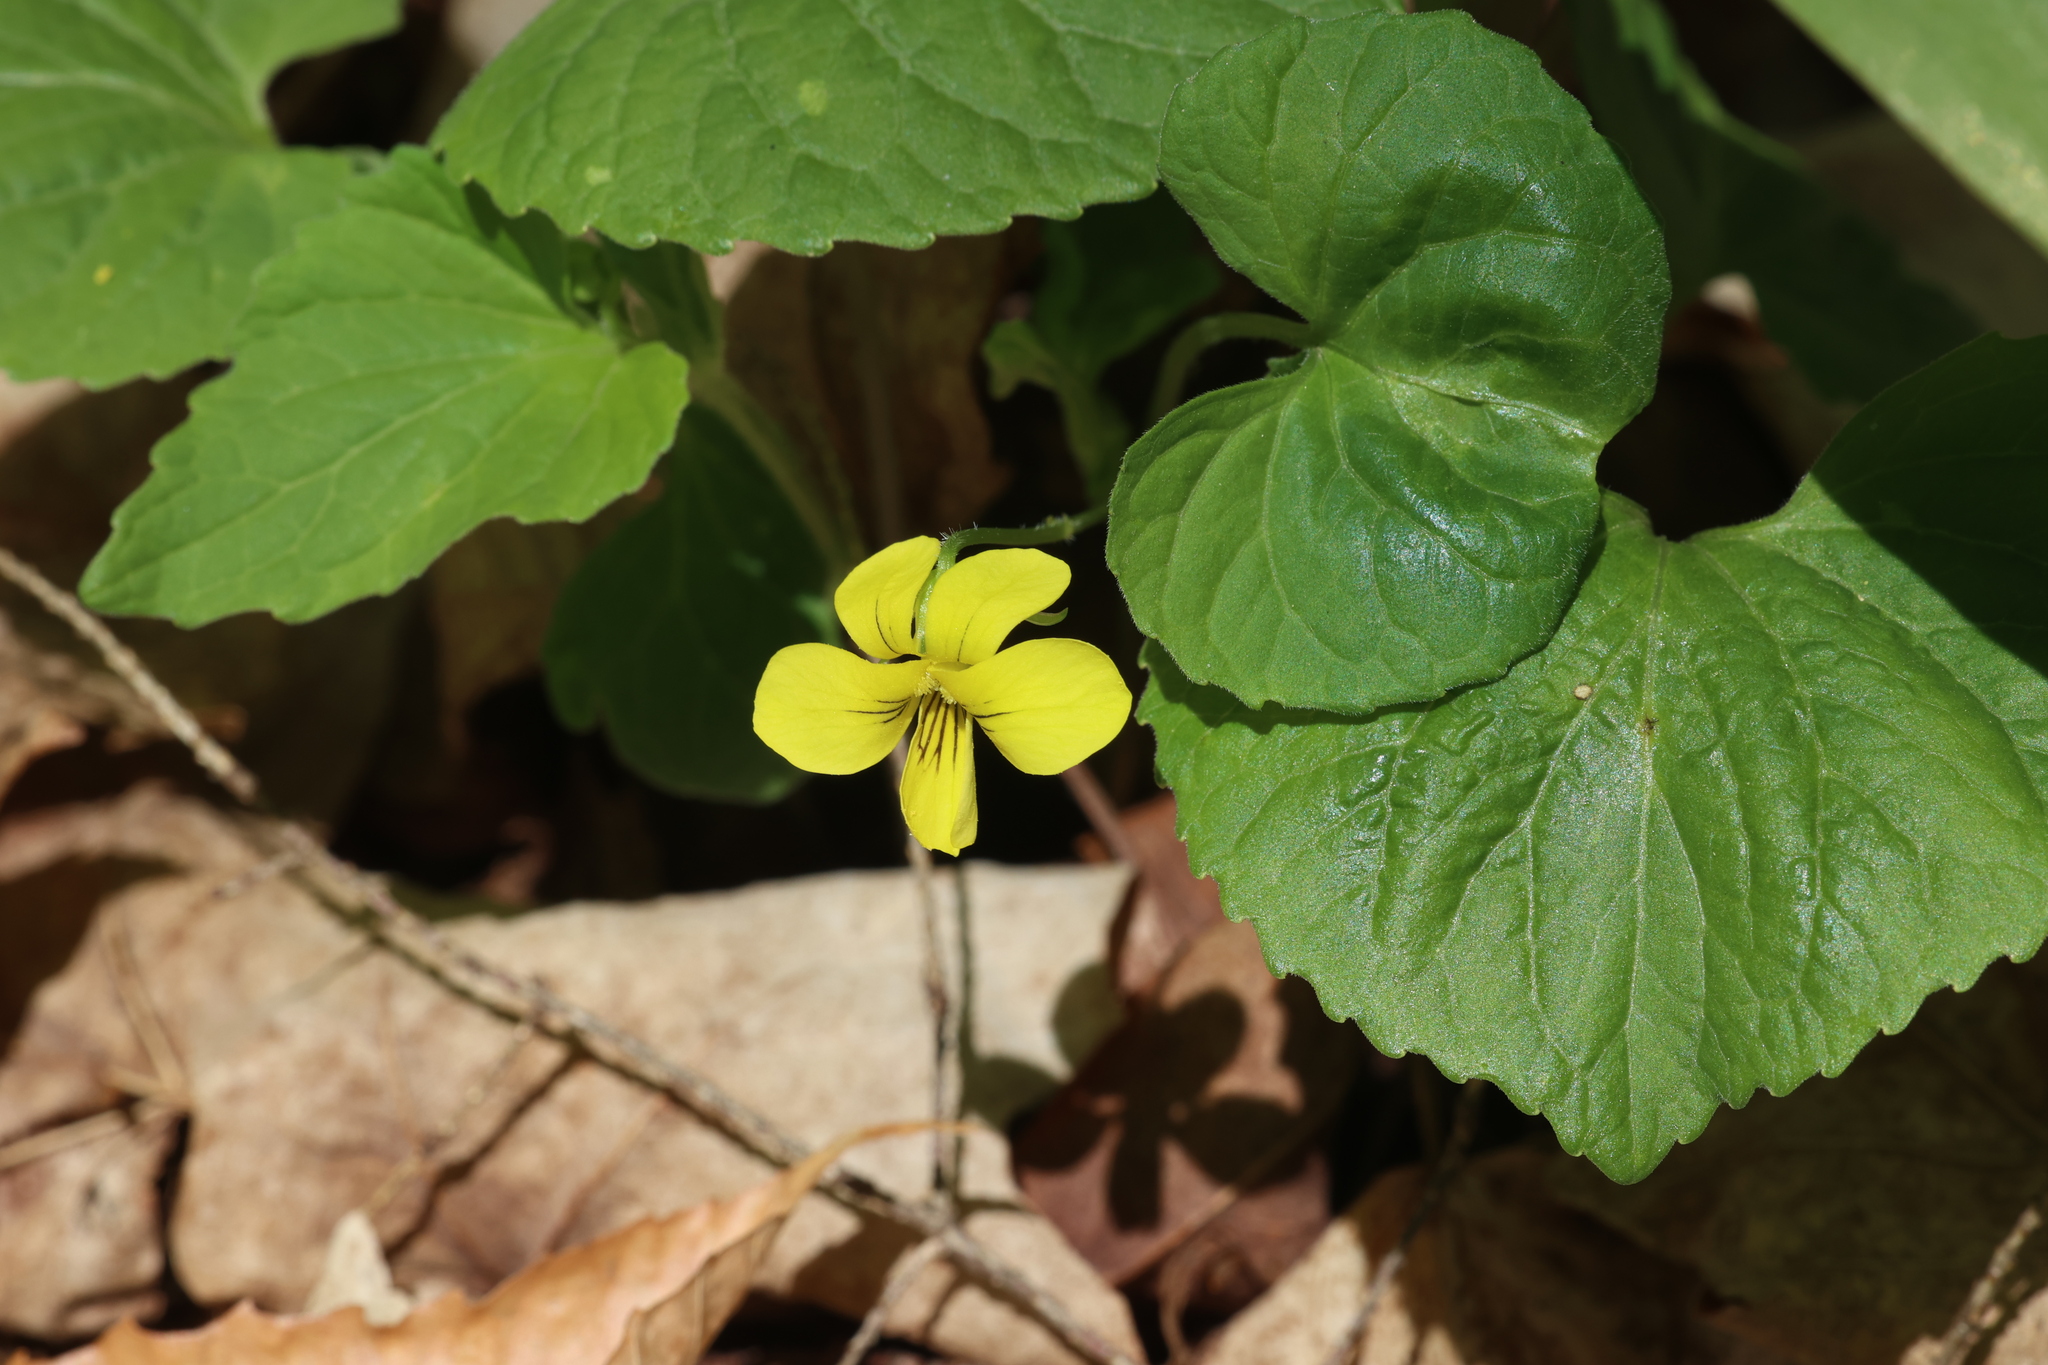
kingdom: Plantae
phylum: Tracheophyta
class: Magnoliopsida
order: Malpighiales
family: Violaceae
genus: Viola
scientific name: Viola eriocarpa
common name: Smooth yellow violet
